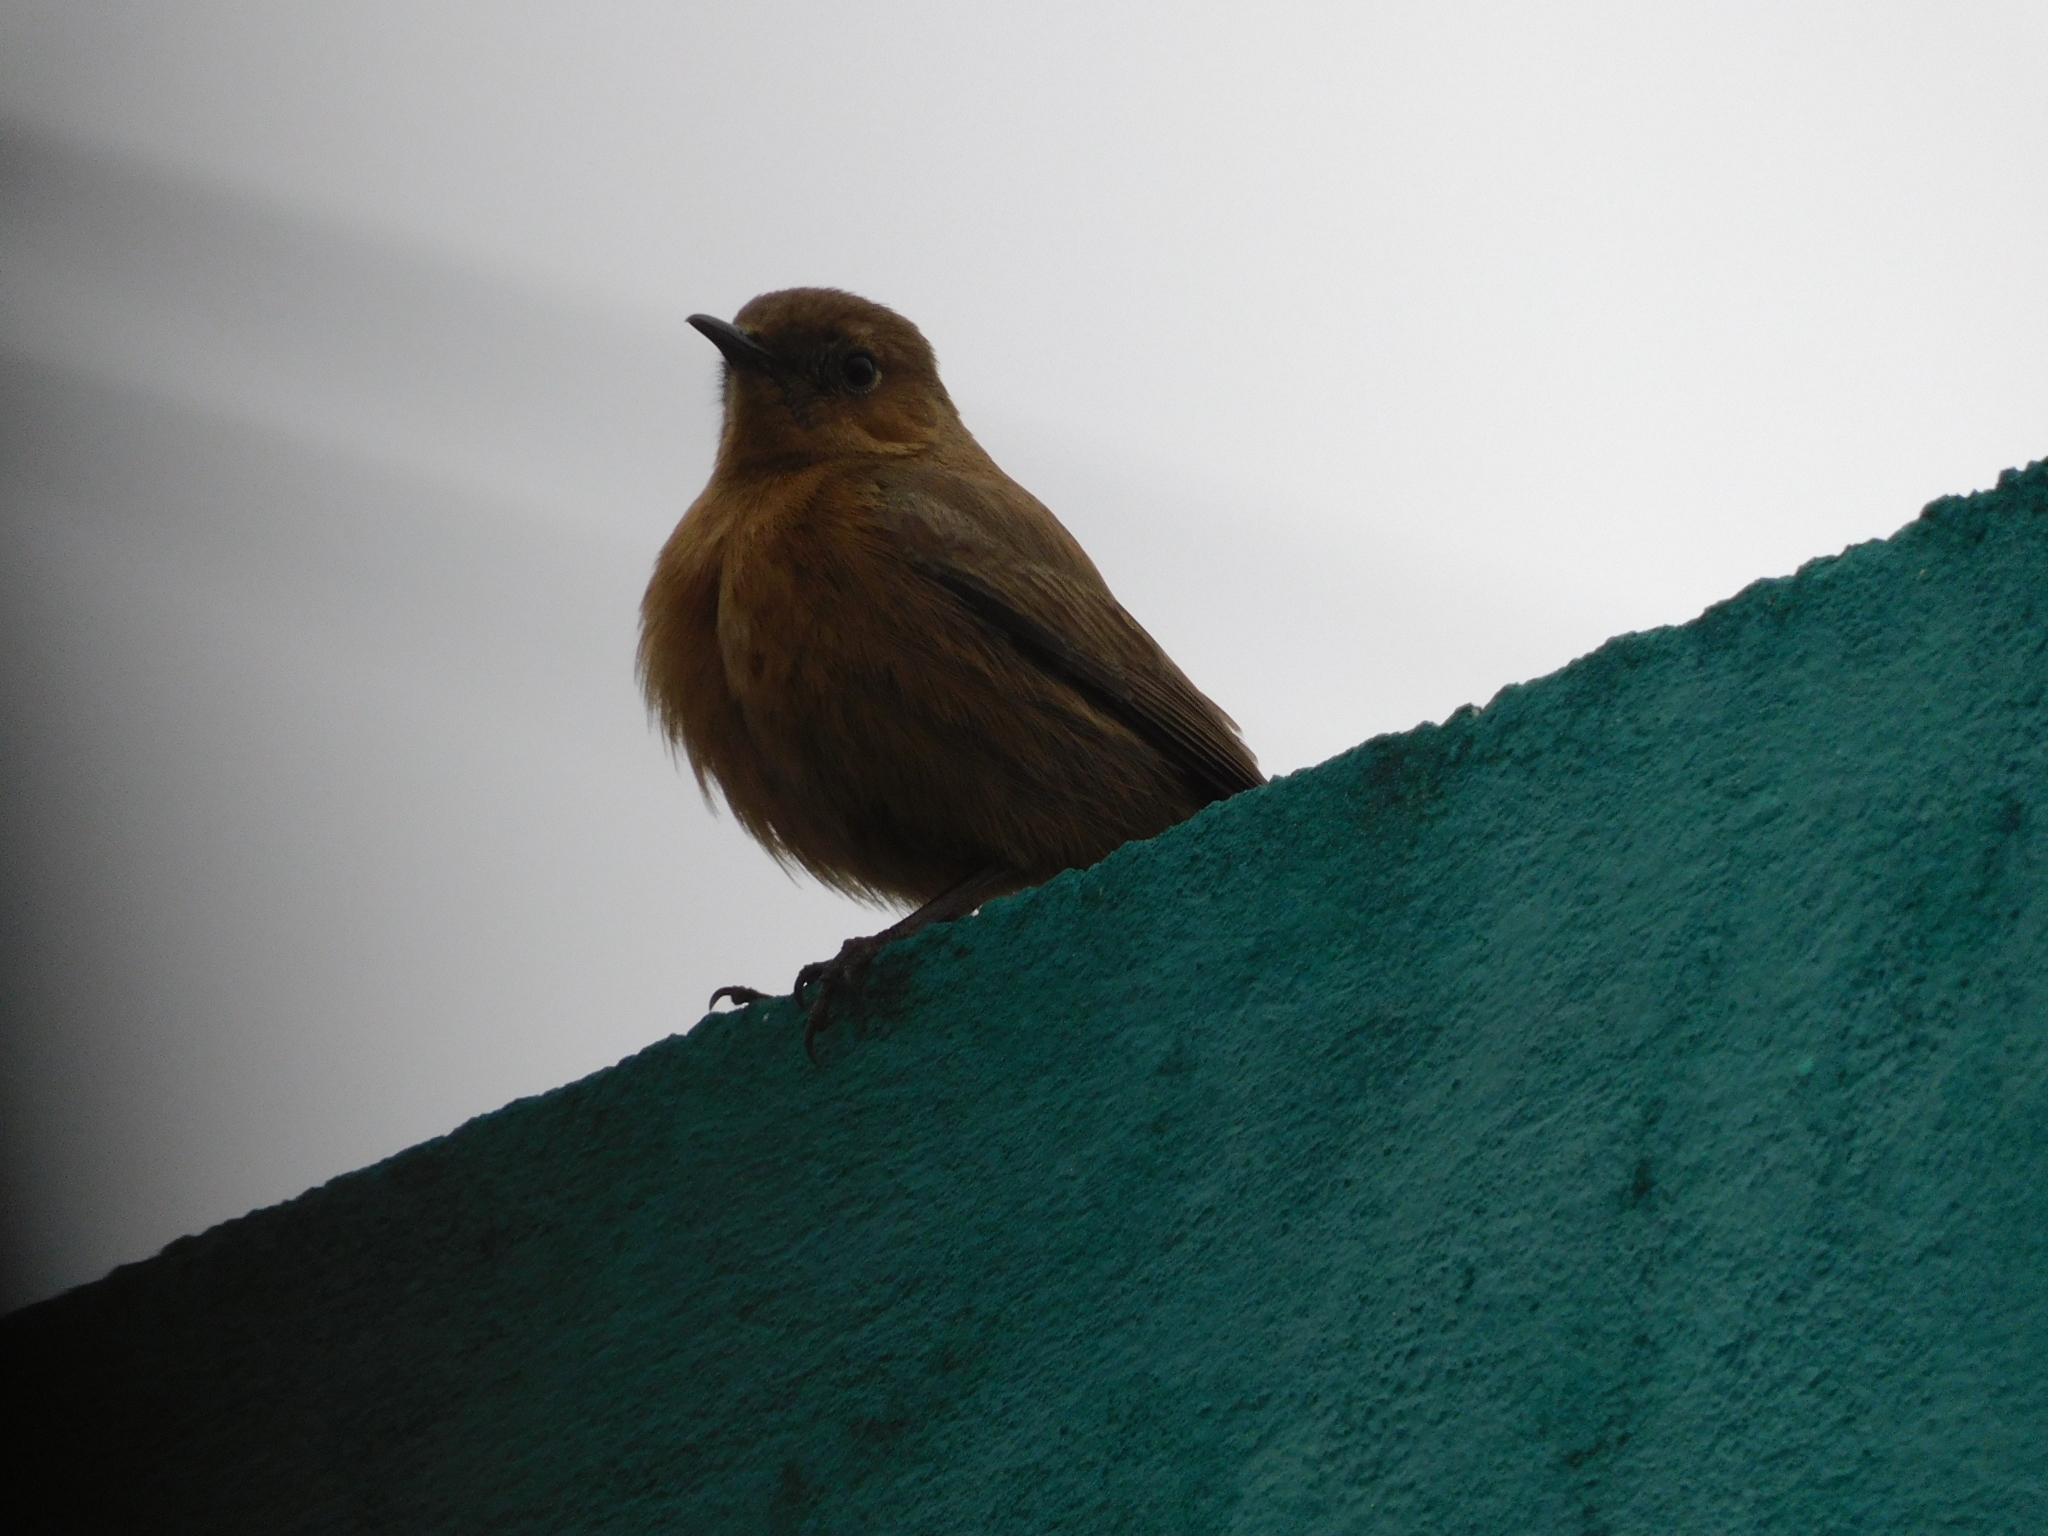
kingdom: Animalia
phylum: Chordata
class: Aves
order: Passeriformes
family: Muscicapidae
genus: Oenanthe
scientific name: Oenanthe fusca
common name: Brown rock chat
